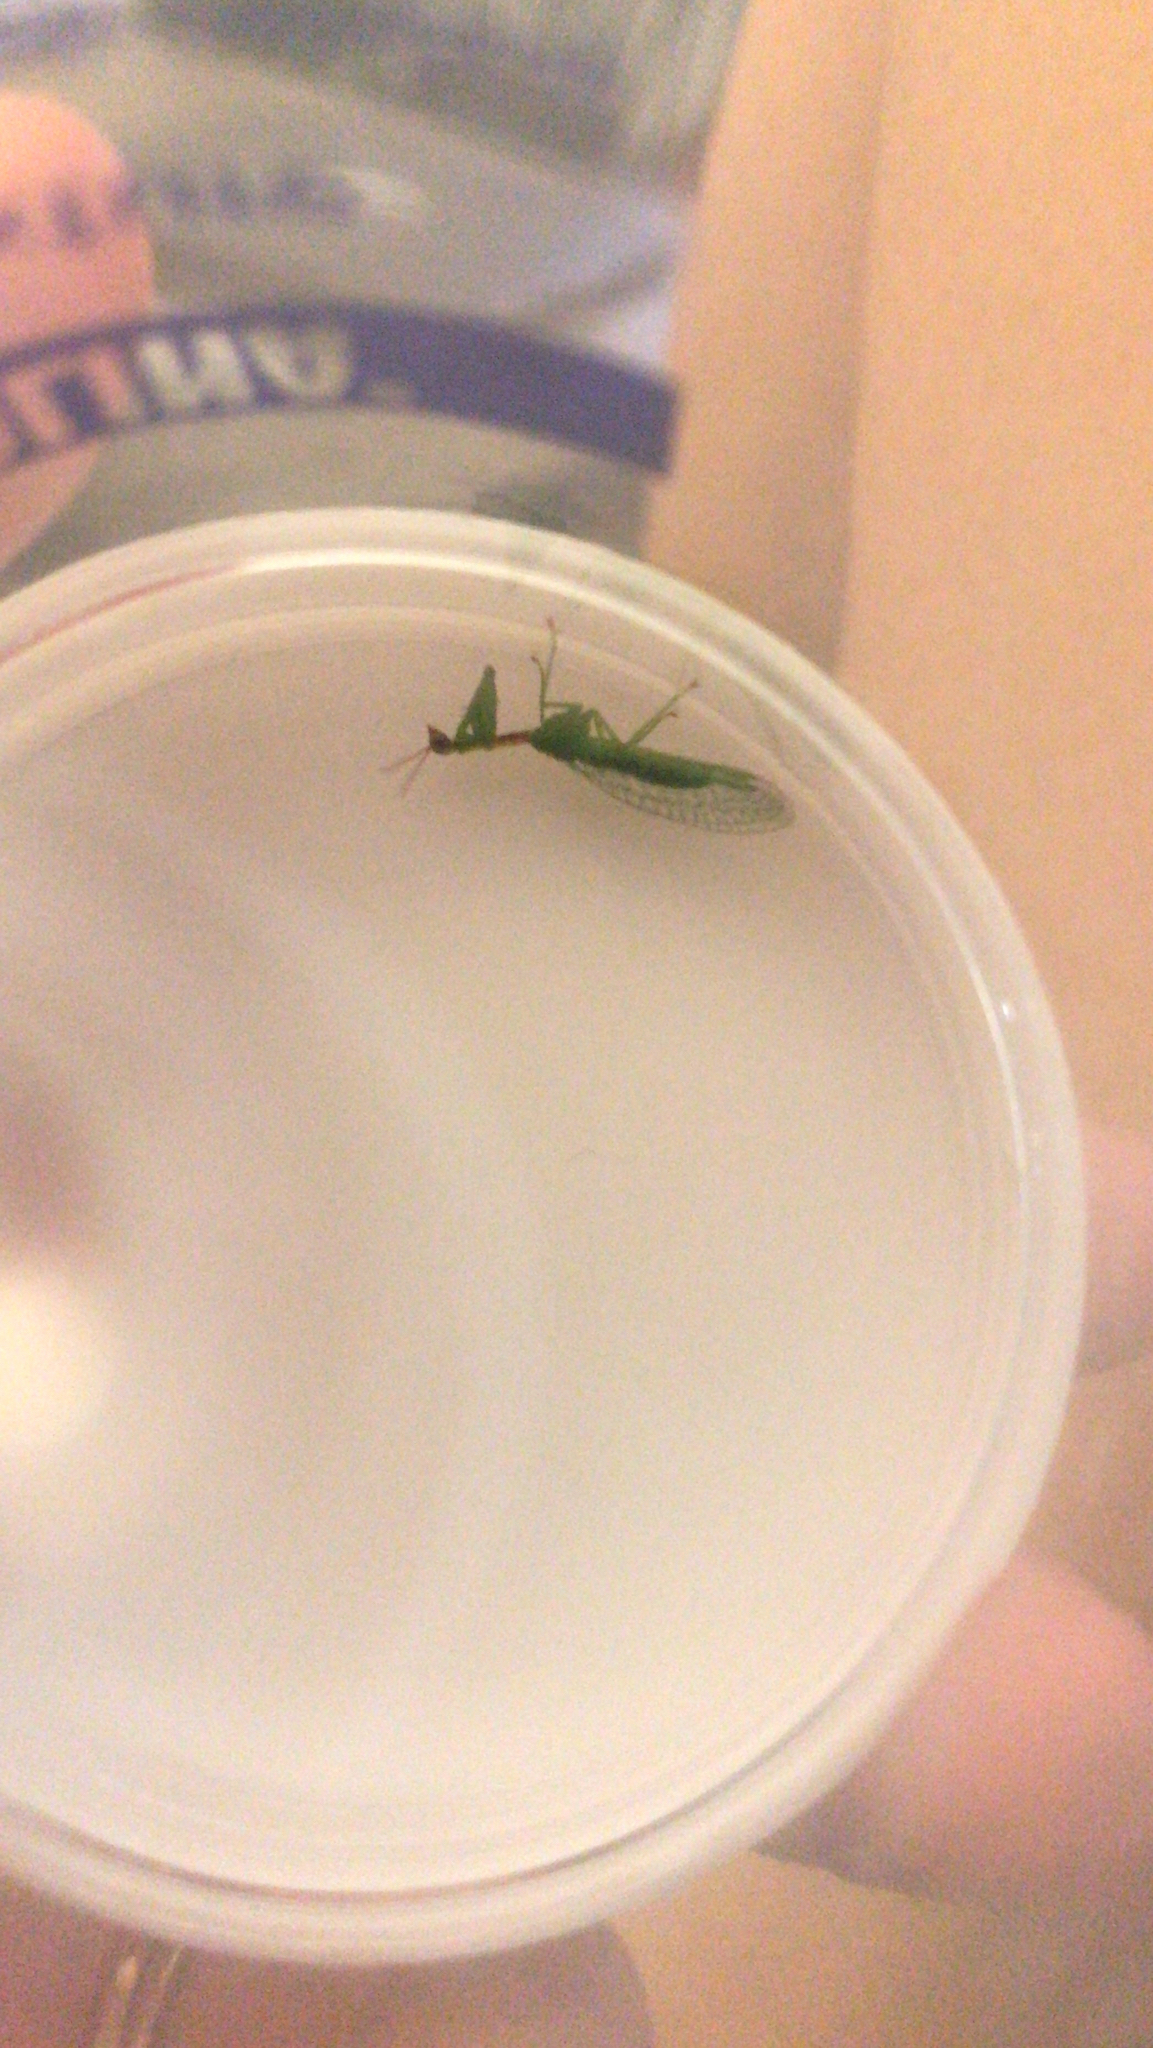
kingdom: Animalia
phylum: Arthropoda
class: Insecta
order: Neuroptera
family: Mantispidae
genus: Zeugomantispa
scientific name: Zeugomantispa minuta
